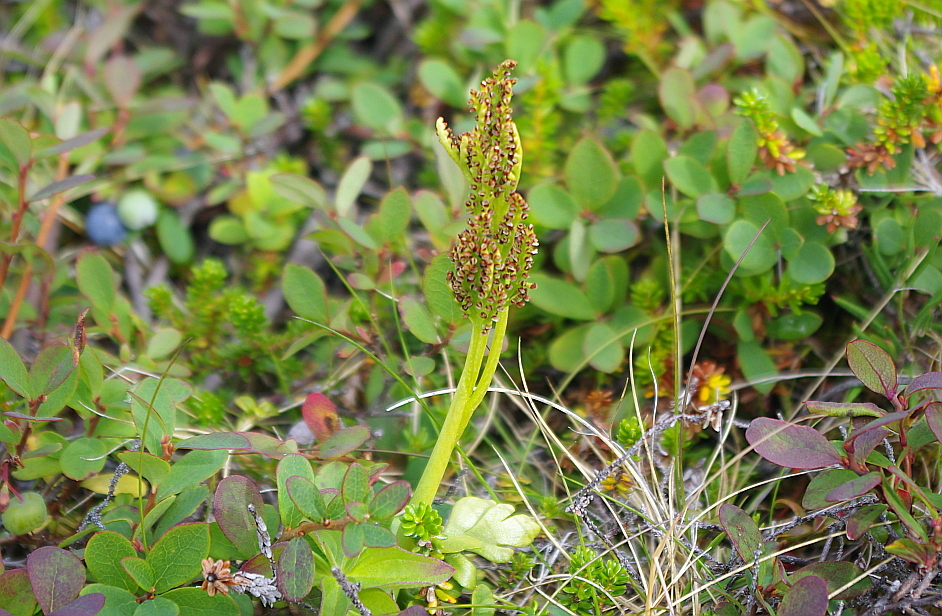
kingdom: Plantae
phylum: Tracheophyta
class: Polypodiopsida
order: Ophioglossales
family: Ophioglossaceae
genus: Botrychium
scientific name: Botrychium boreale
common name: Boreal moonwort
